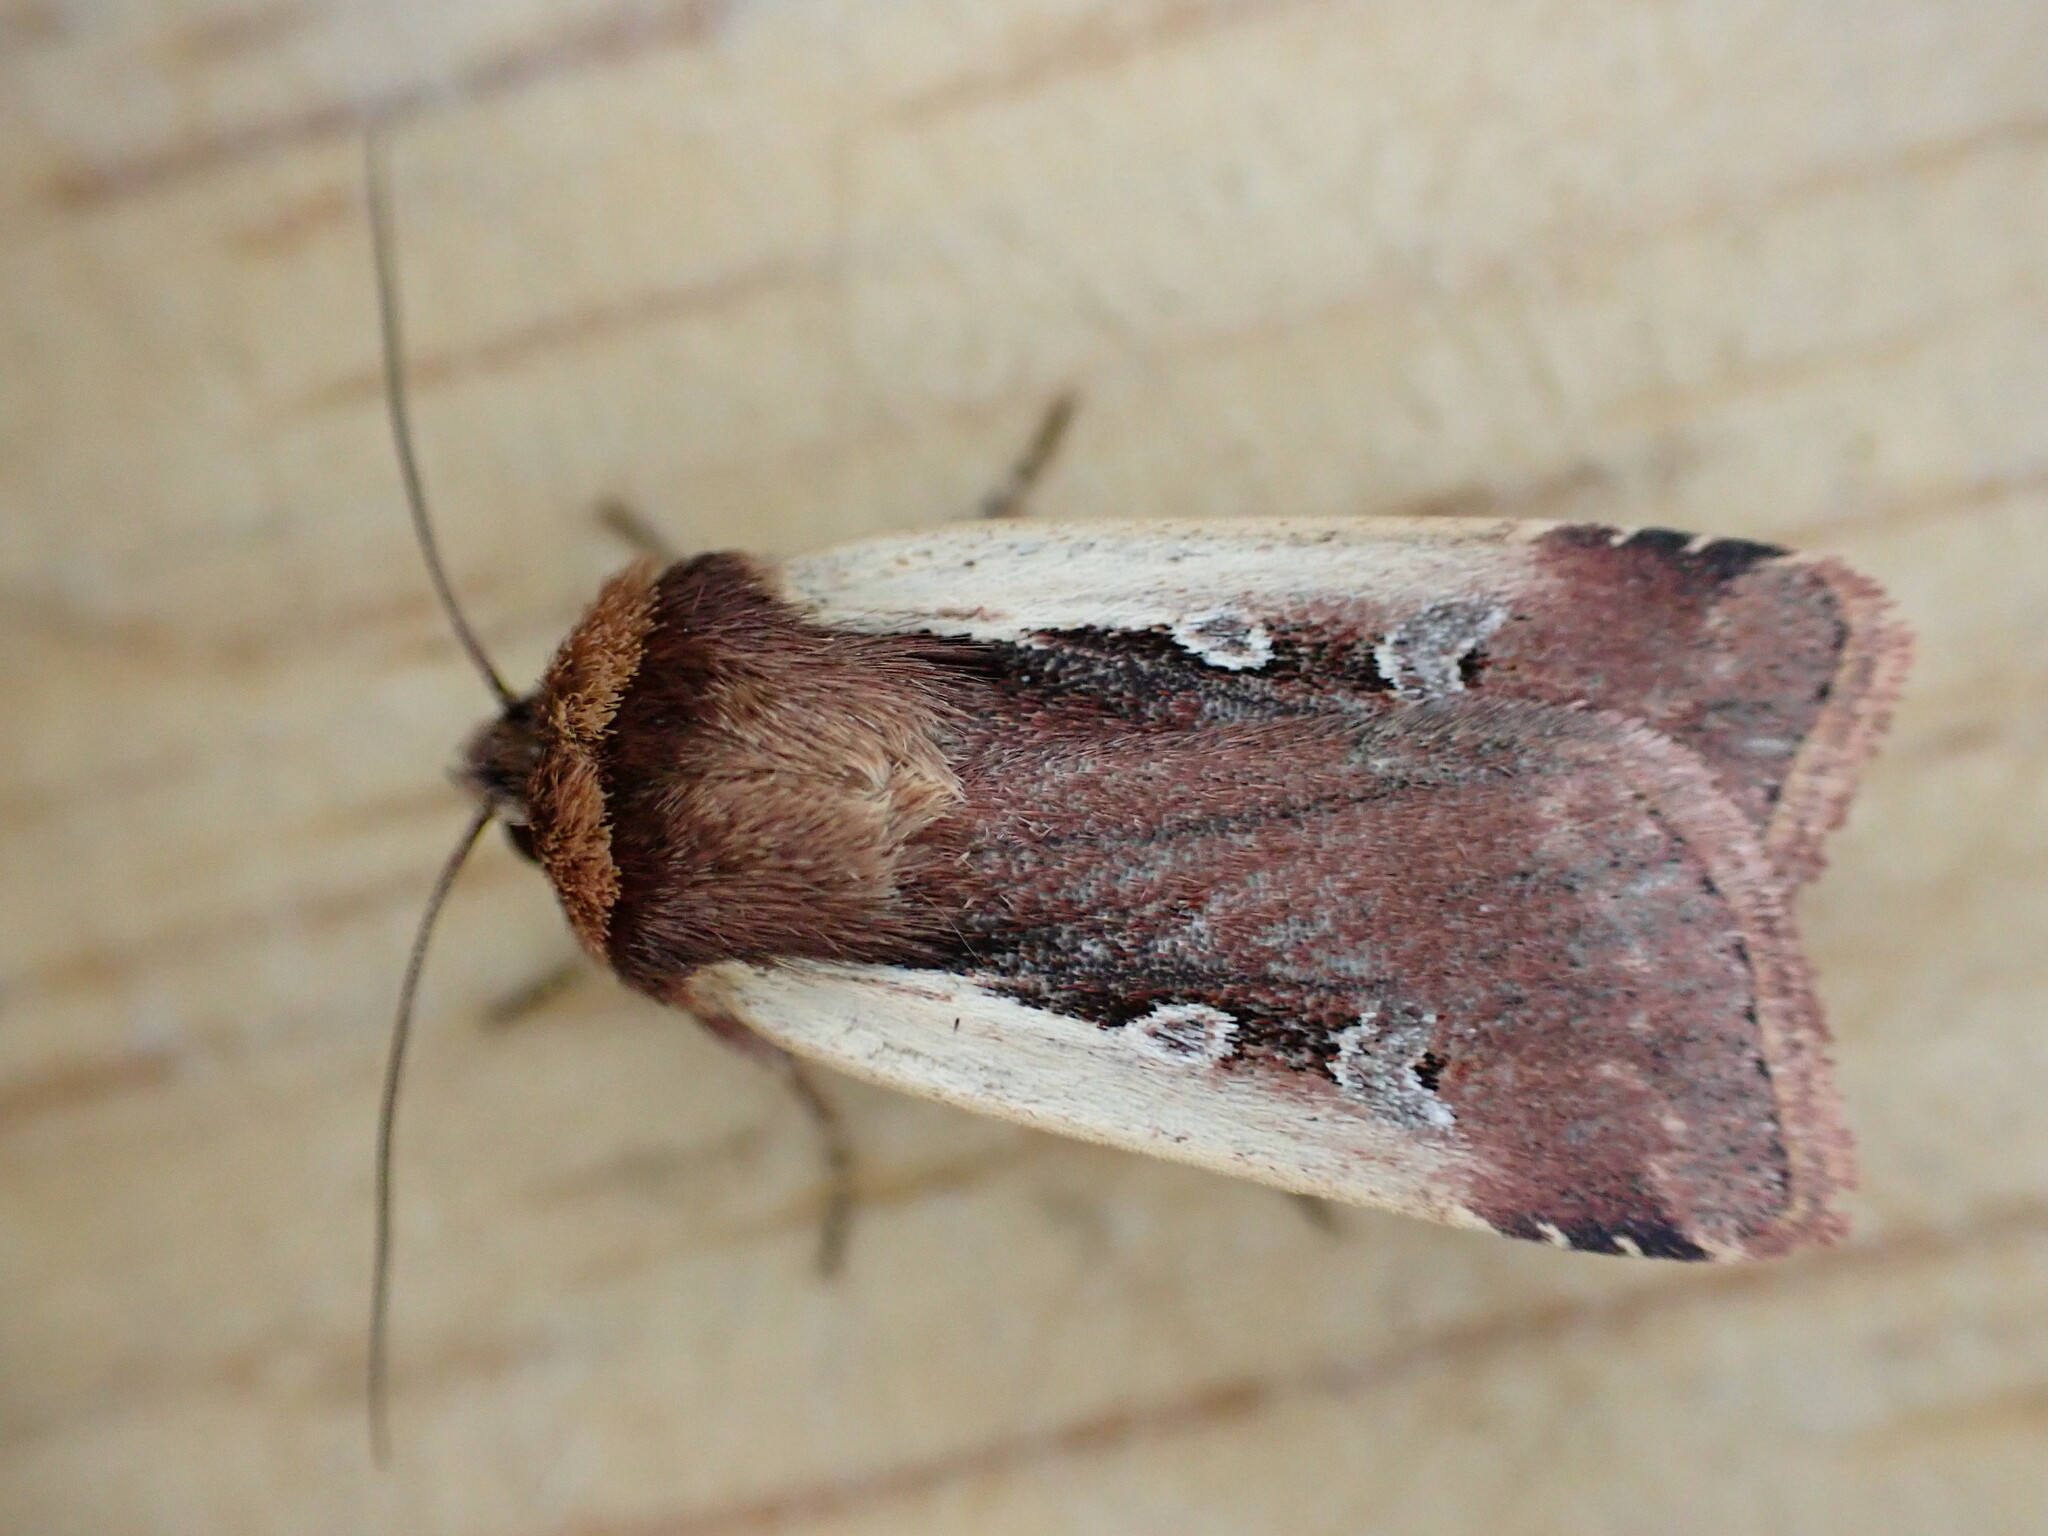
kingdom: Animalia
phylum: Arthropoda
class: Insecta
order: Lepidoptera
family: Noctuidae
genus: Ochropleura
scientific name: Ochropleura plecta
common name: Flame shoulder
